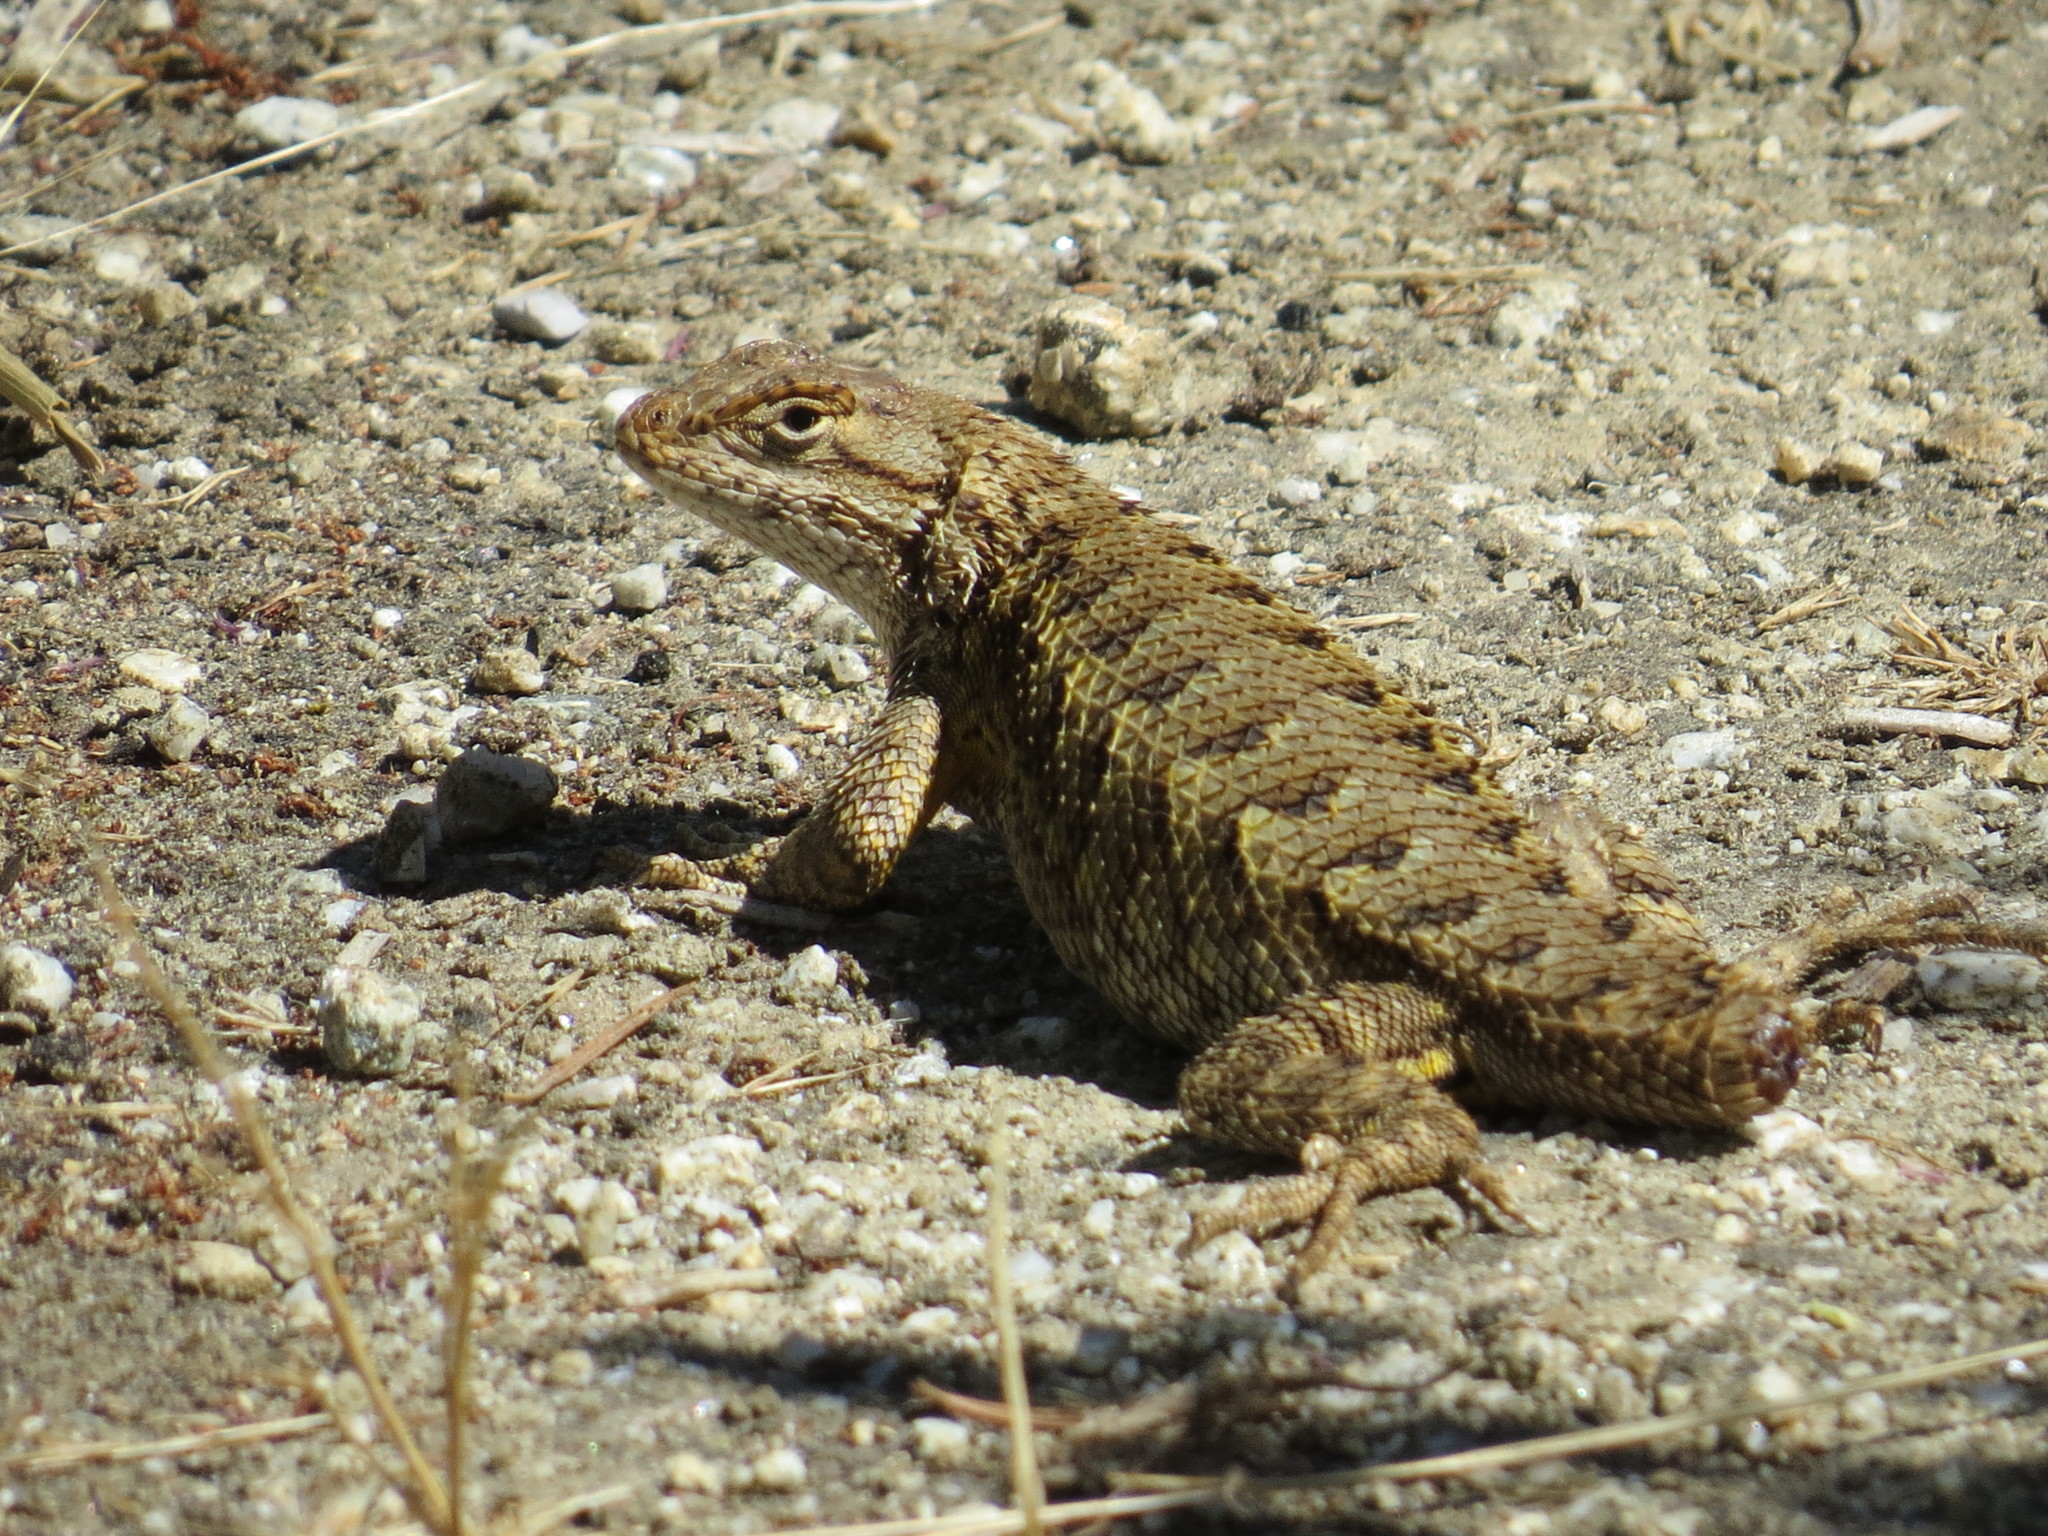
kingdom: Animalia
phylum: Chordata
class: Squamata
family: Phrynosomatidae
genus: Sceloporus
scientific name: Sceloporus occidentalis
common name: Western fence lizard
